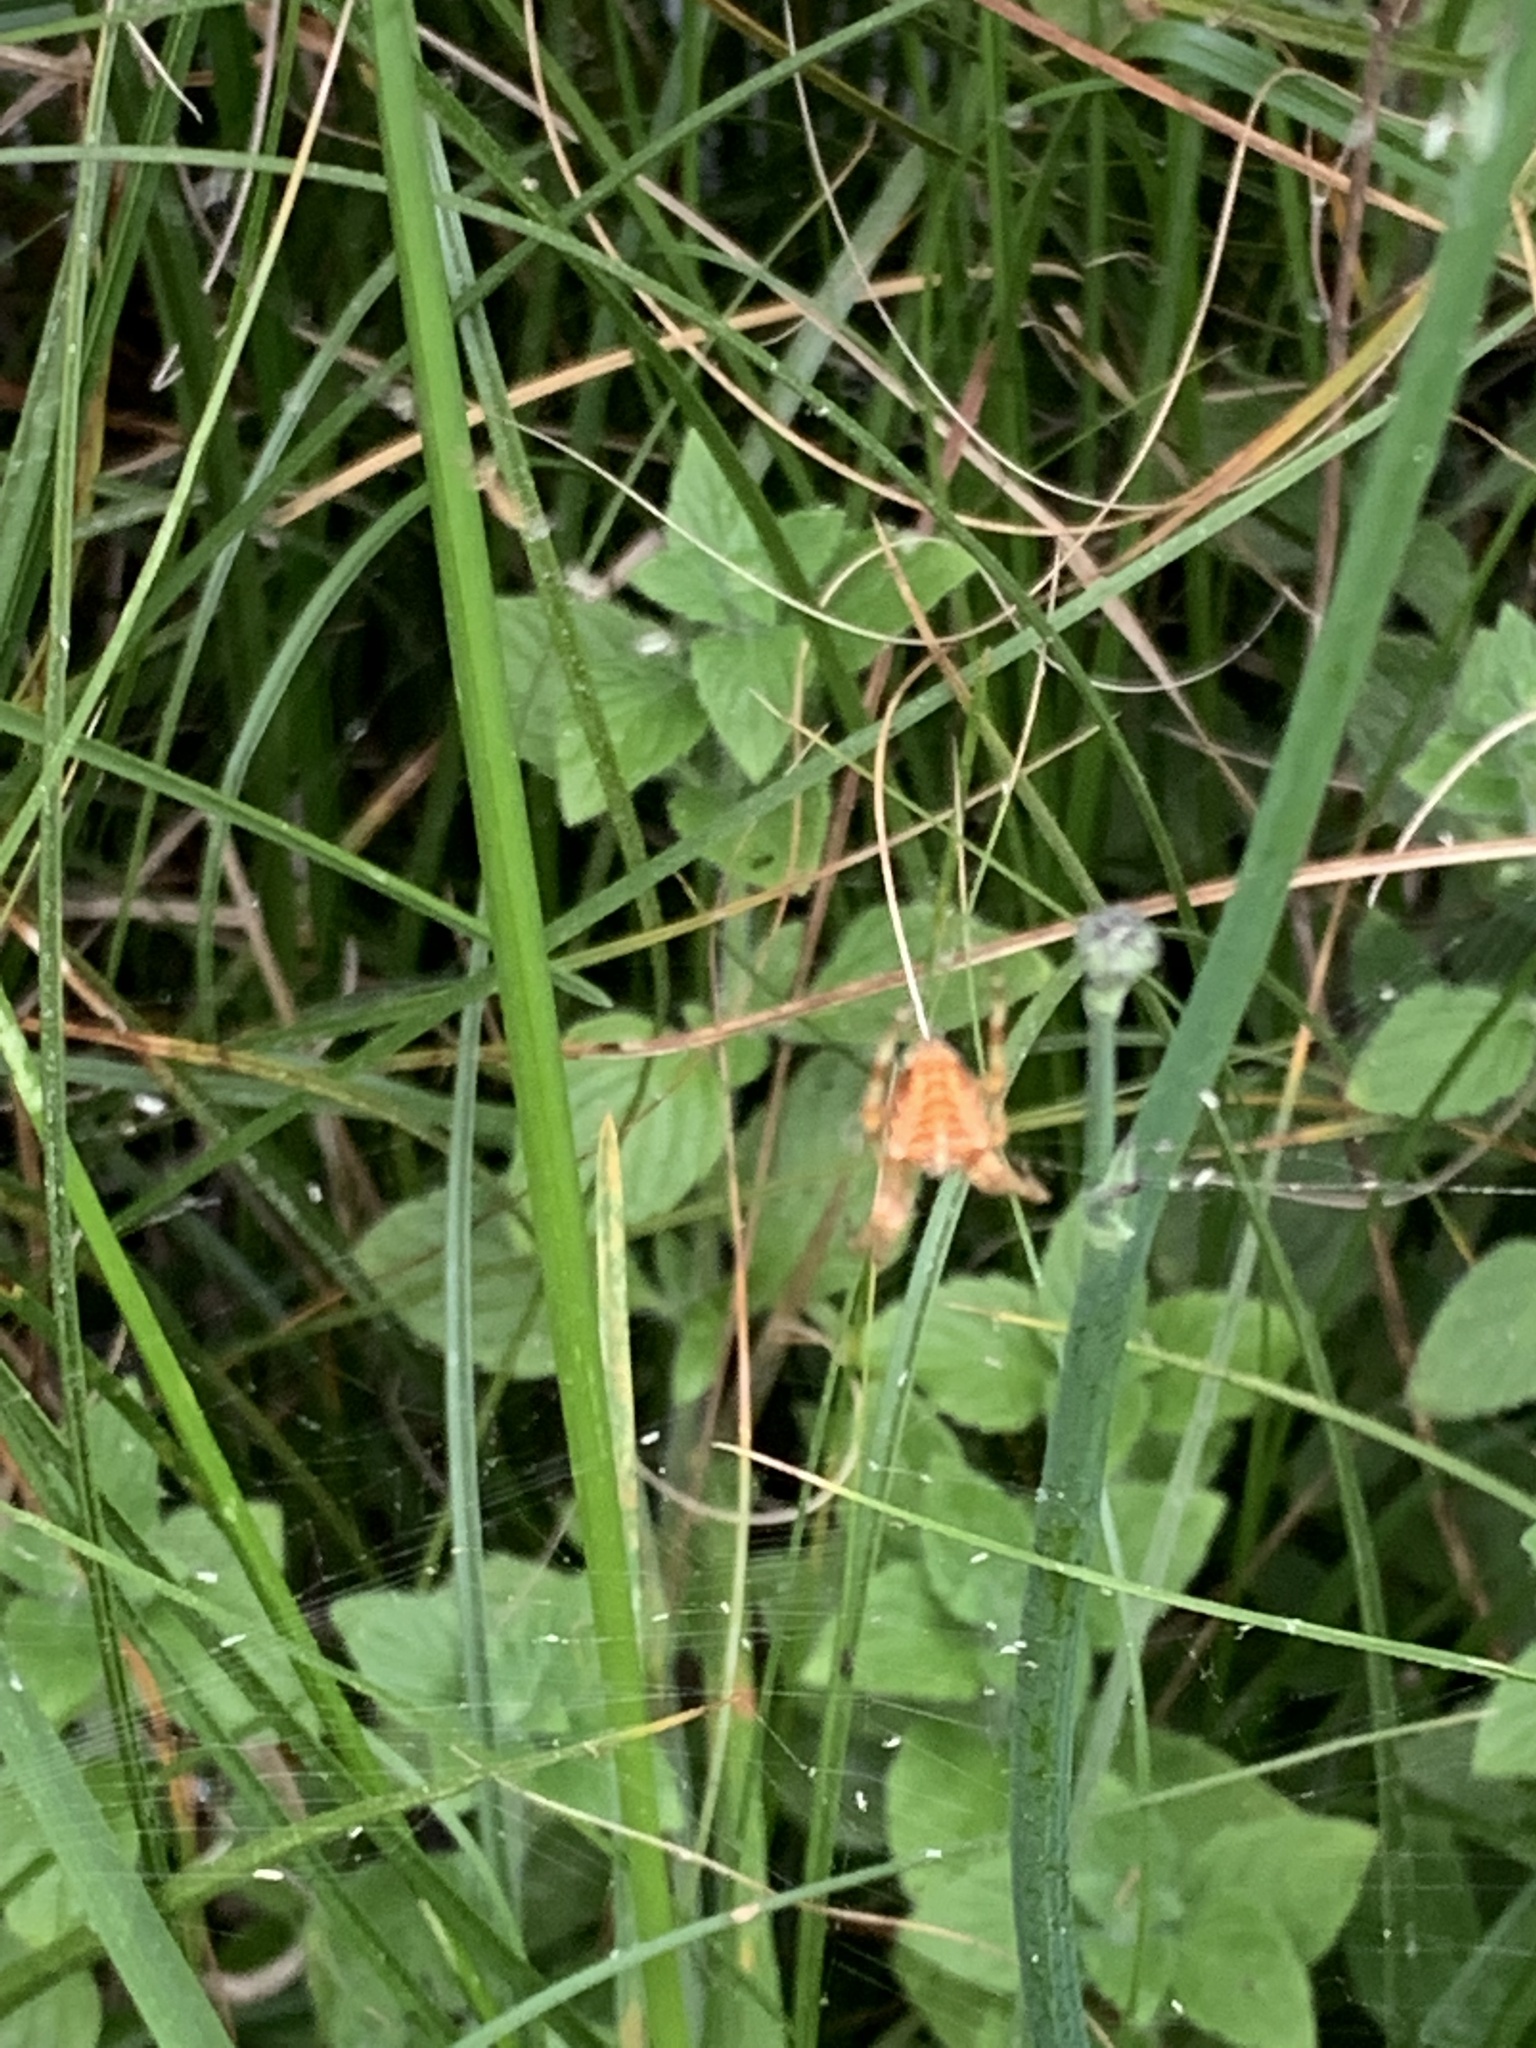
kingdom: Animalia
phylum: Arthropoda
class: Arachnida
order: Araneae
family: Araneidae
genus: Araneus
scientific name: Araneus diadematus
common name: Cross orbweaver
